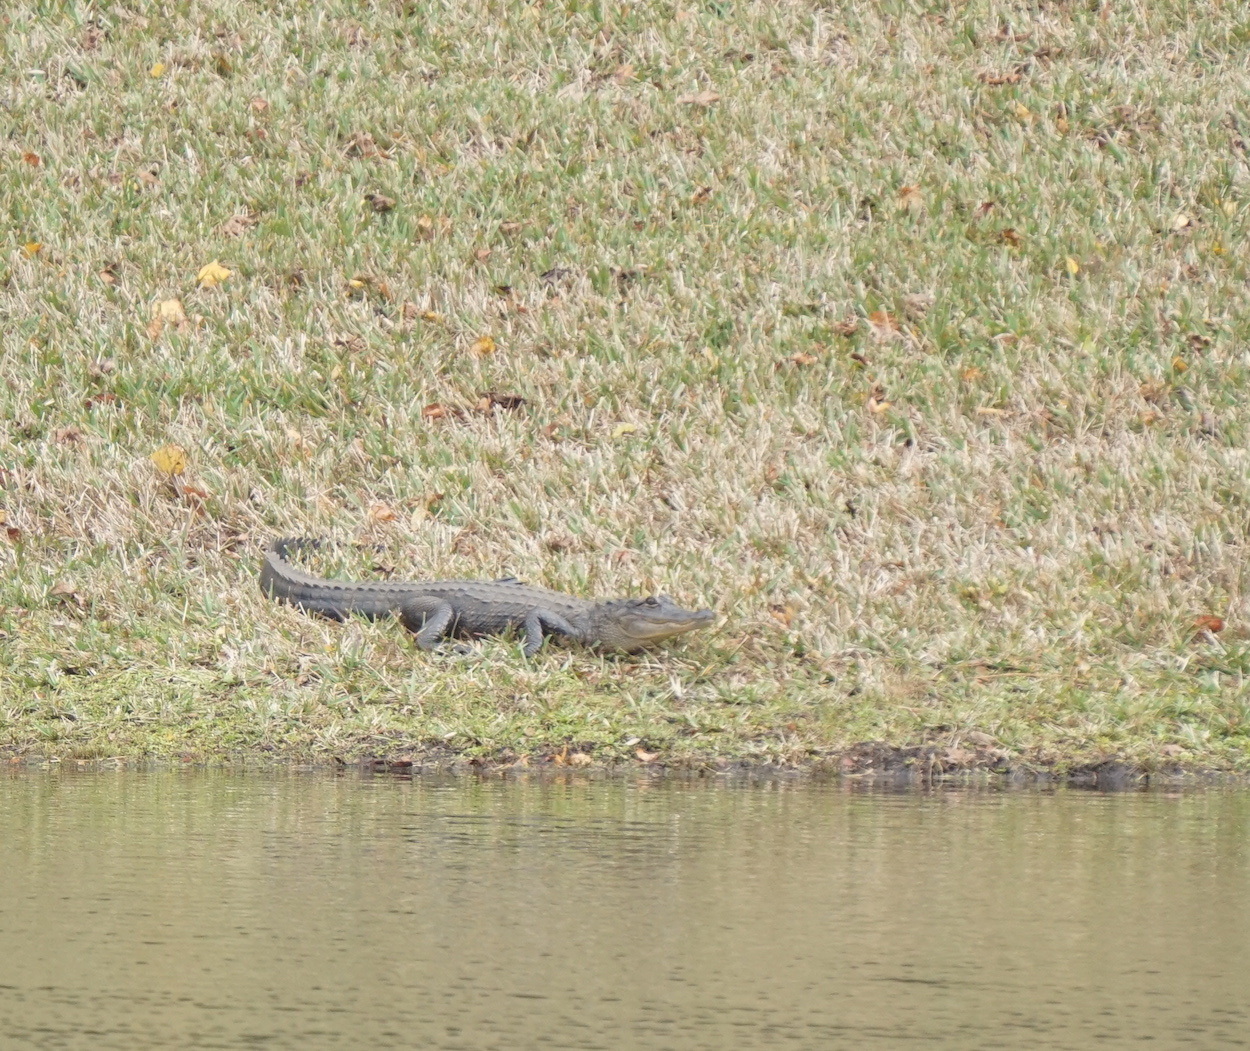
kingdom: Animalia
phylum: Chordata
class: Crocodylia
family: Alligatoridae
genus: Alligator
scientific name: Alligator mississippiensis
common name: American alligator
